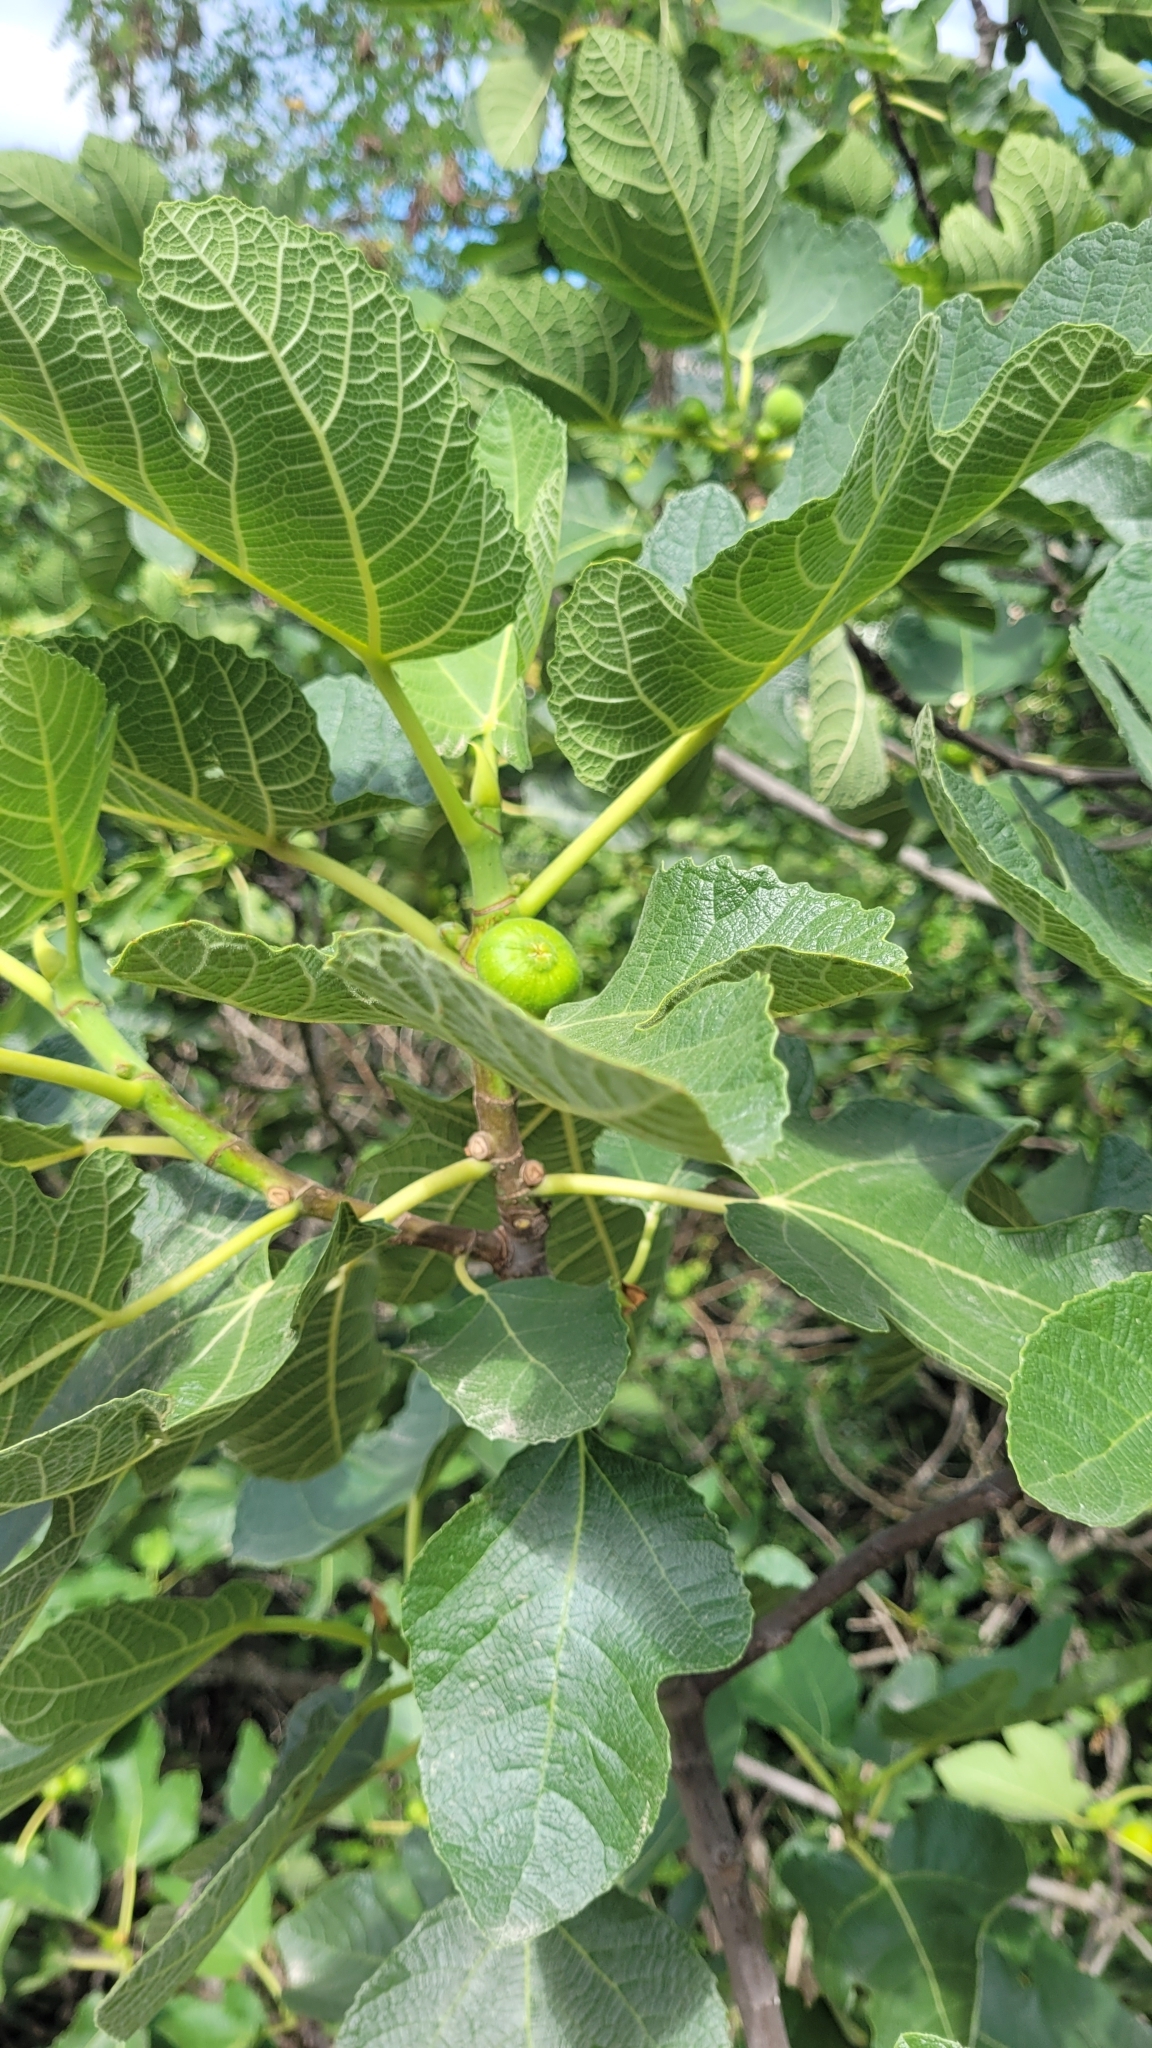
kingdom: Plantae
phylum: Tracheophyta
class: Magnoliopsida
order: Rosales
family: Moraceae
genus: Ficus
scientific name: Ficus carica
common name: Fig
